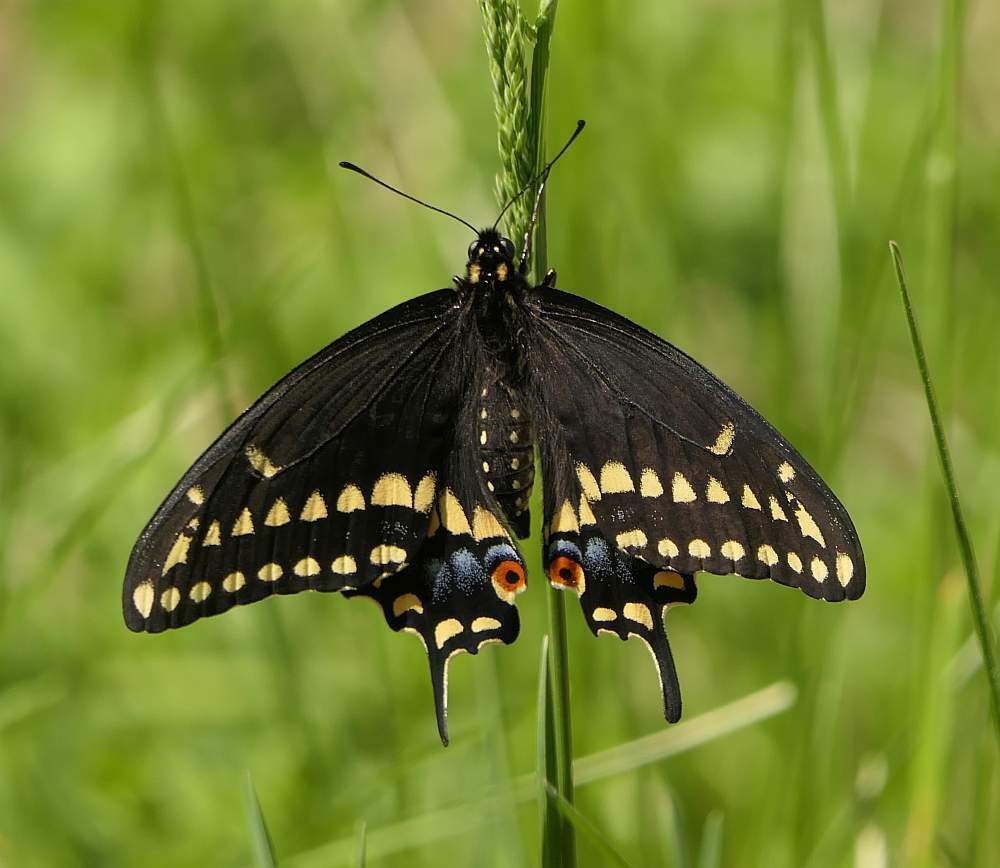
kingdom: Animalia
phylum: Arthropoda
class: Insecta
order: Lepidoptera
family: Papilionidae
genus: Papilio
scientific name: Papilio polyxenes
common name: Black swallowtail
